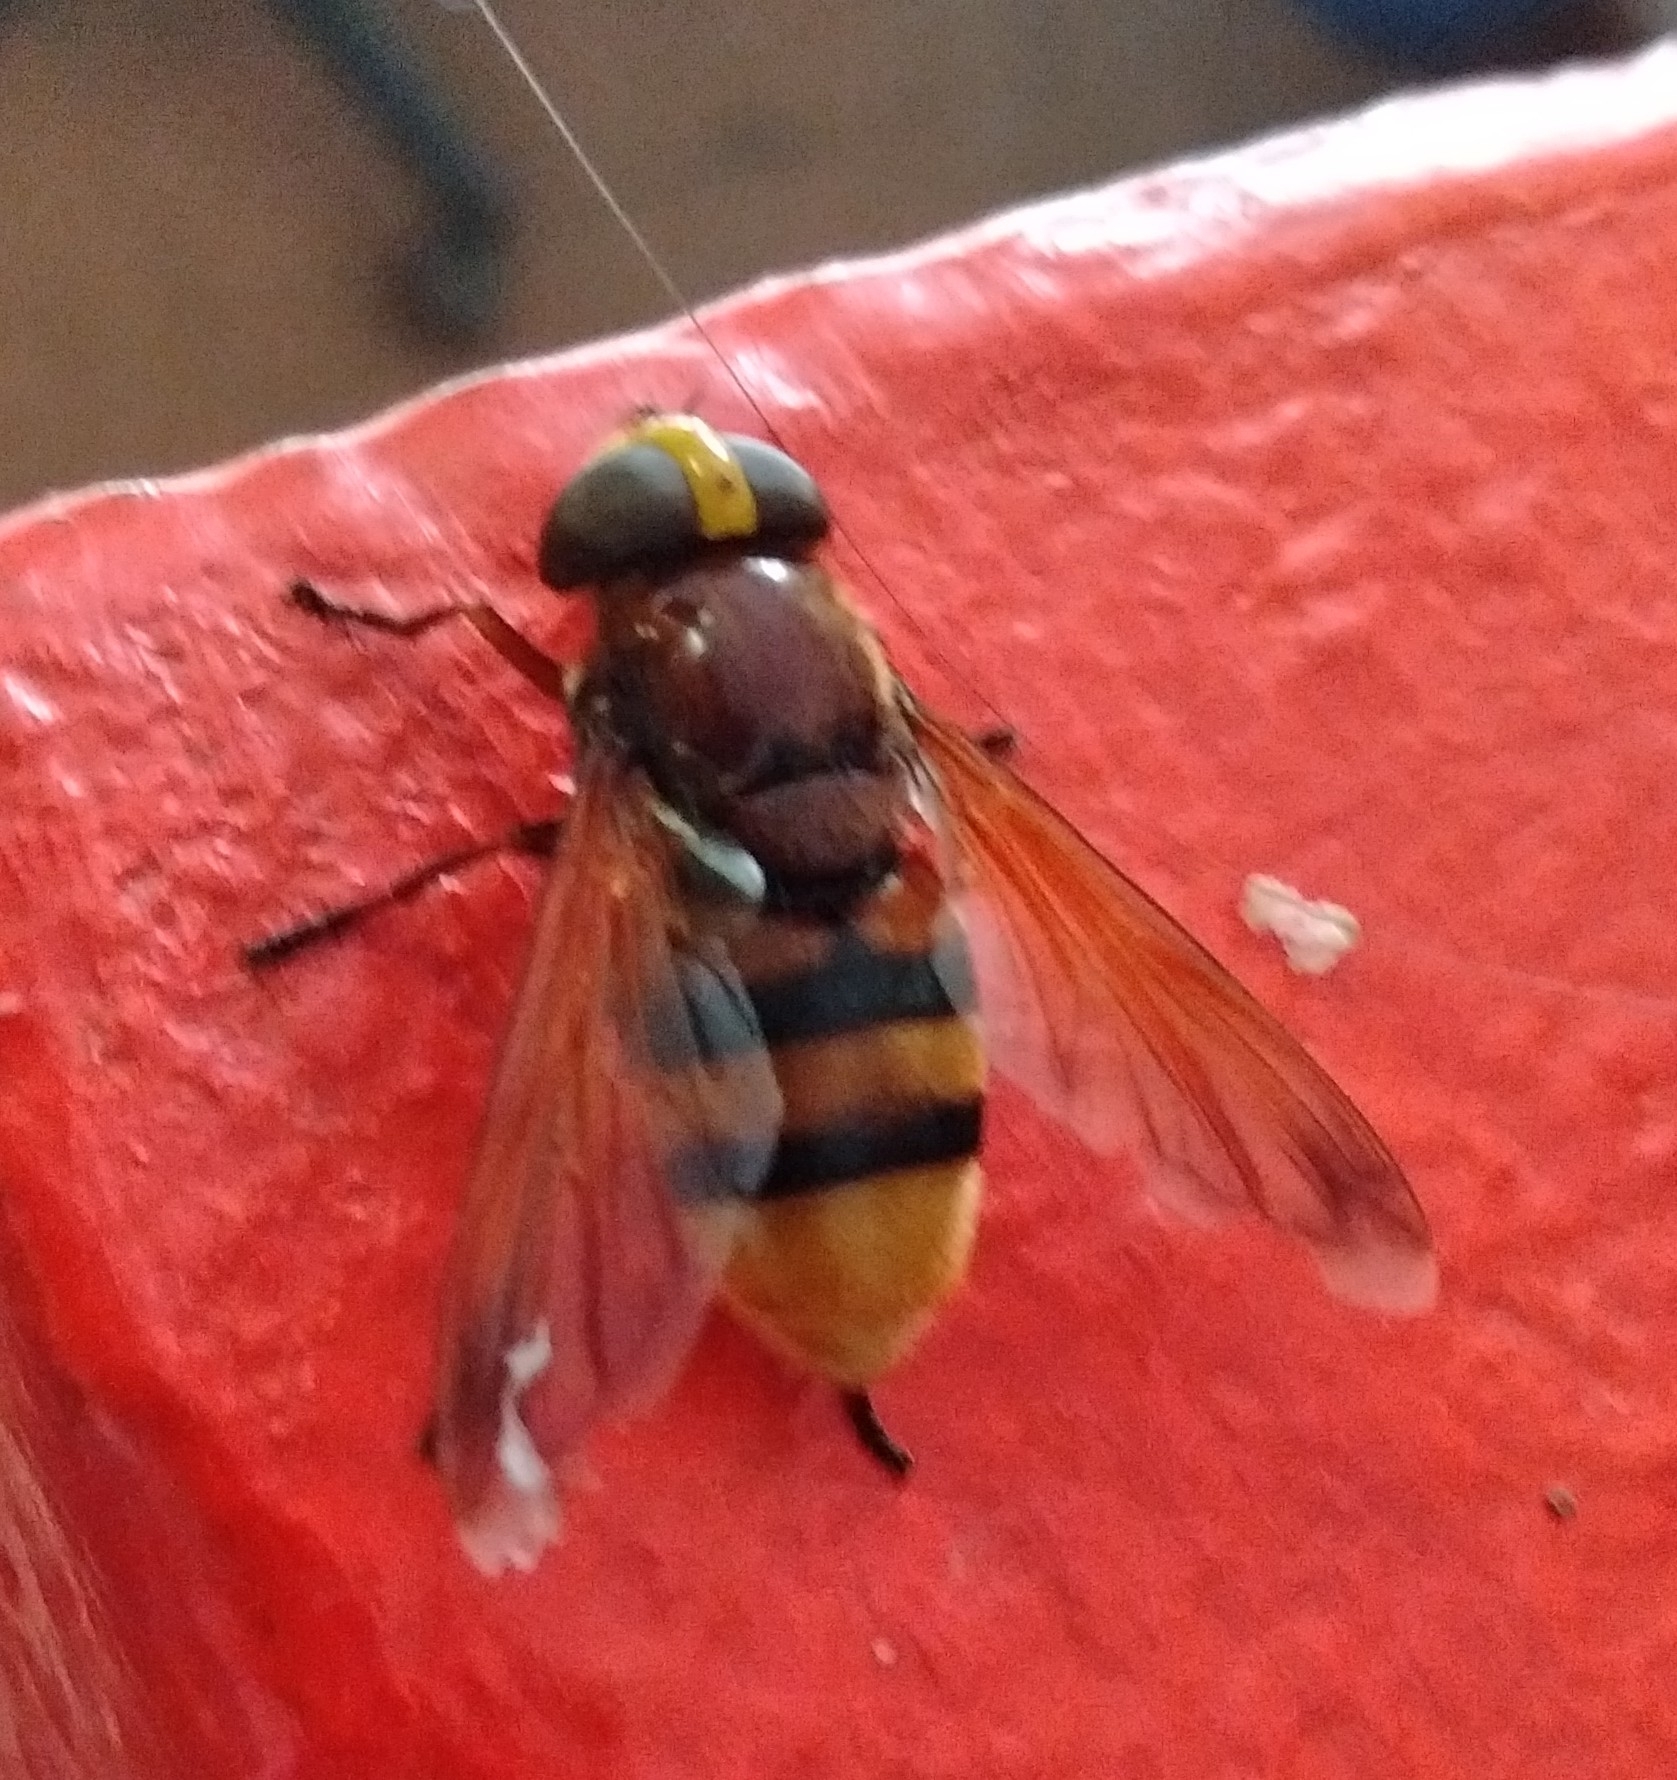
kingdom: Animalia
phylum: Arthropoda
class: Insecta
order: Diptera
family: Syrphidae
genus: Volucella
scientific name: Volucella zonaria
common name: Hornet hoverfly
